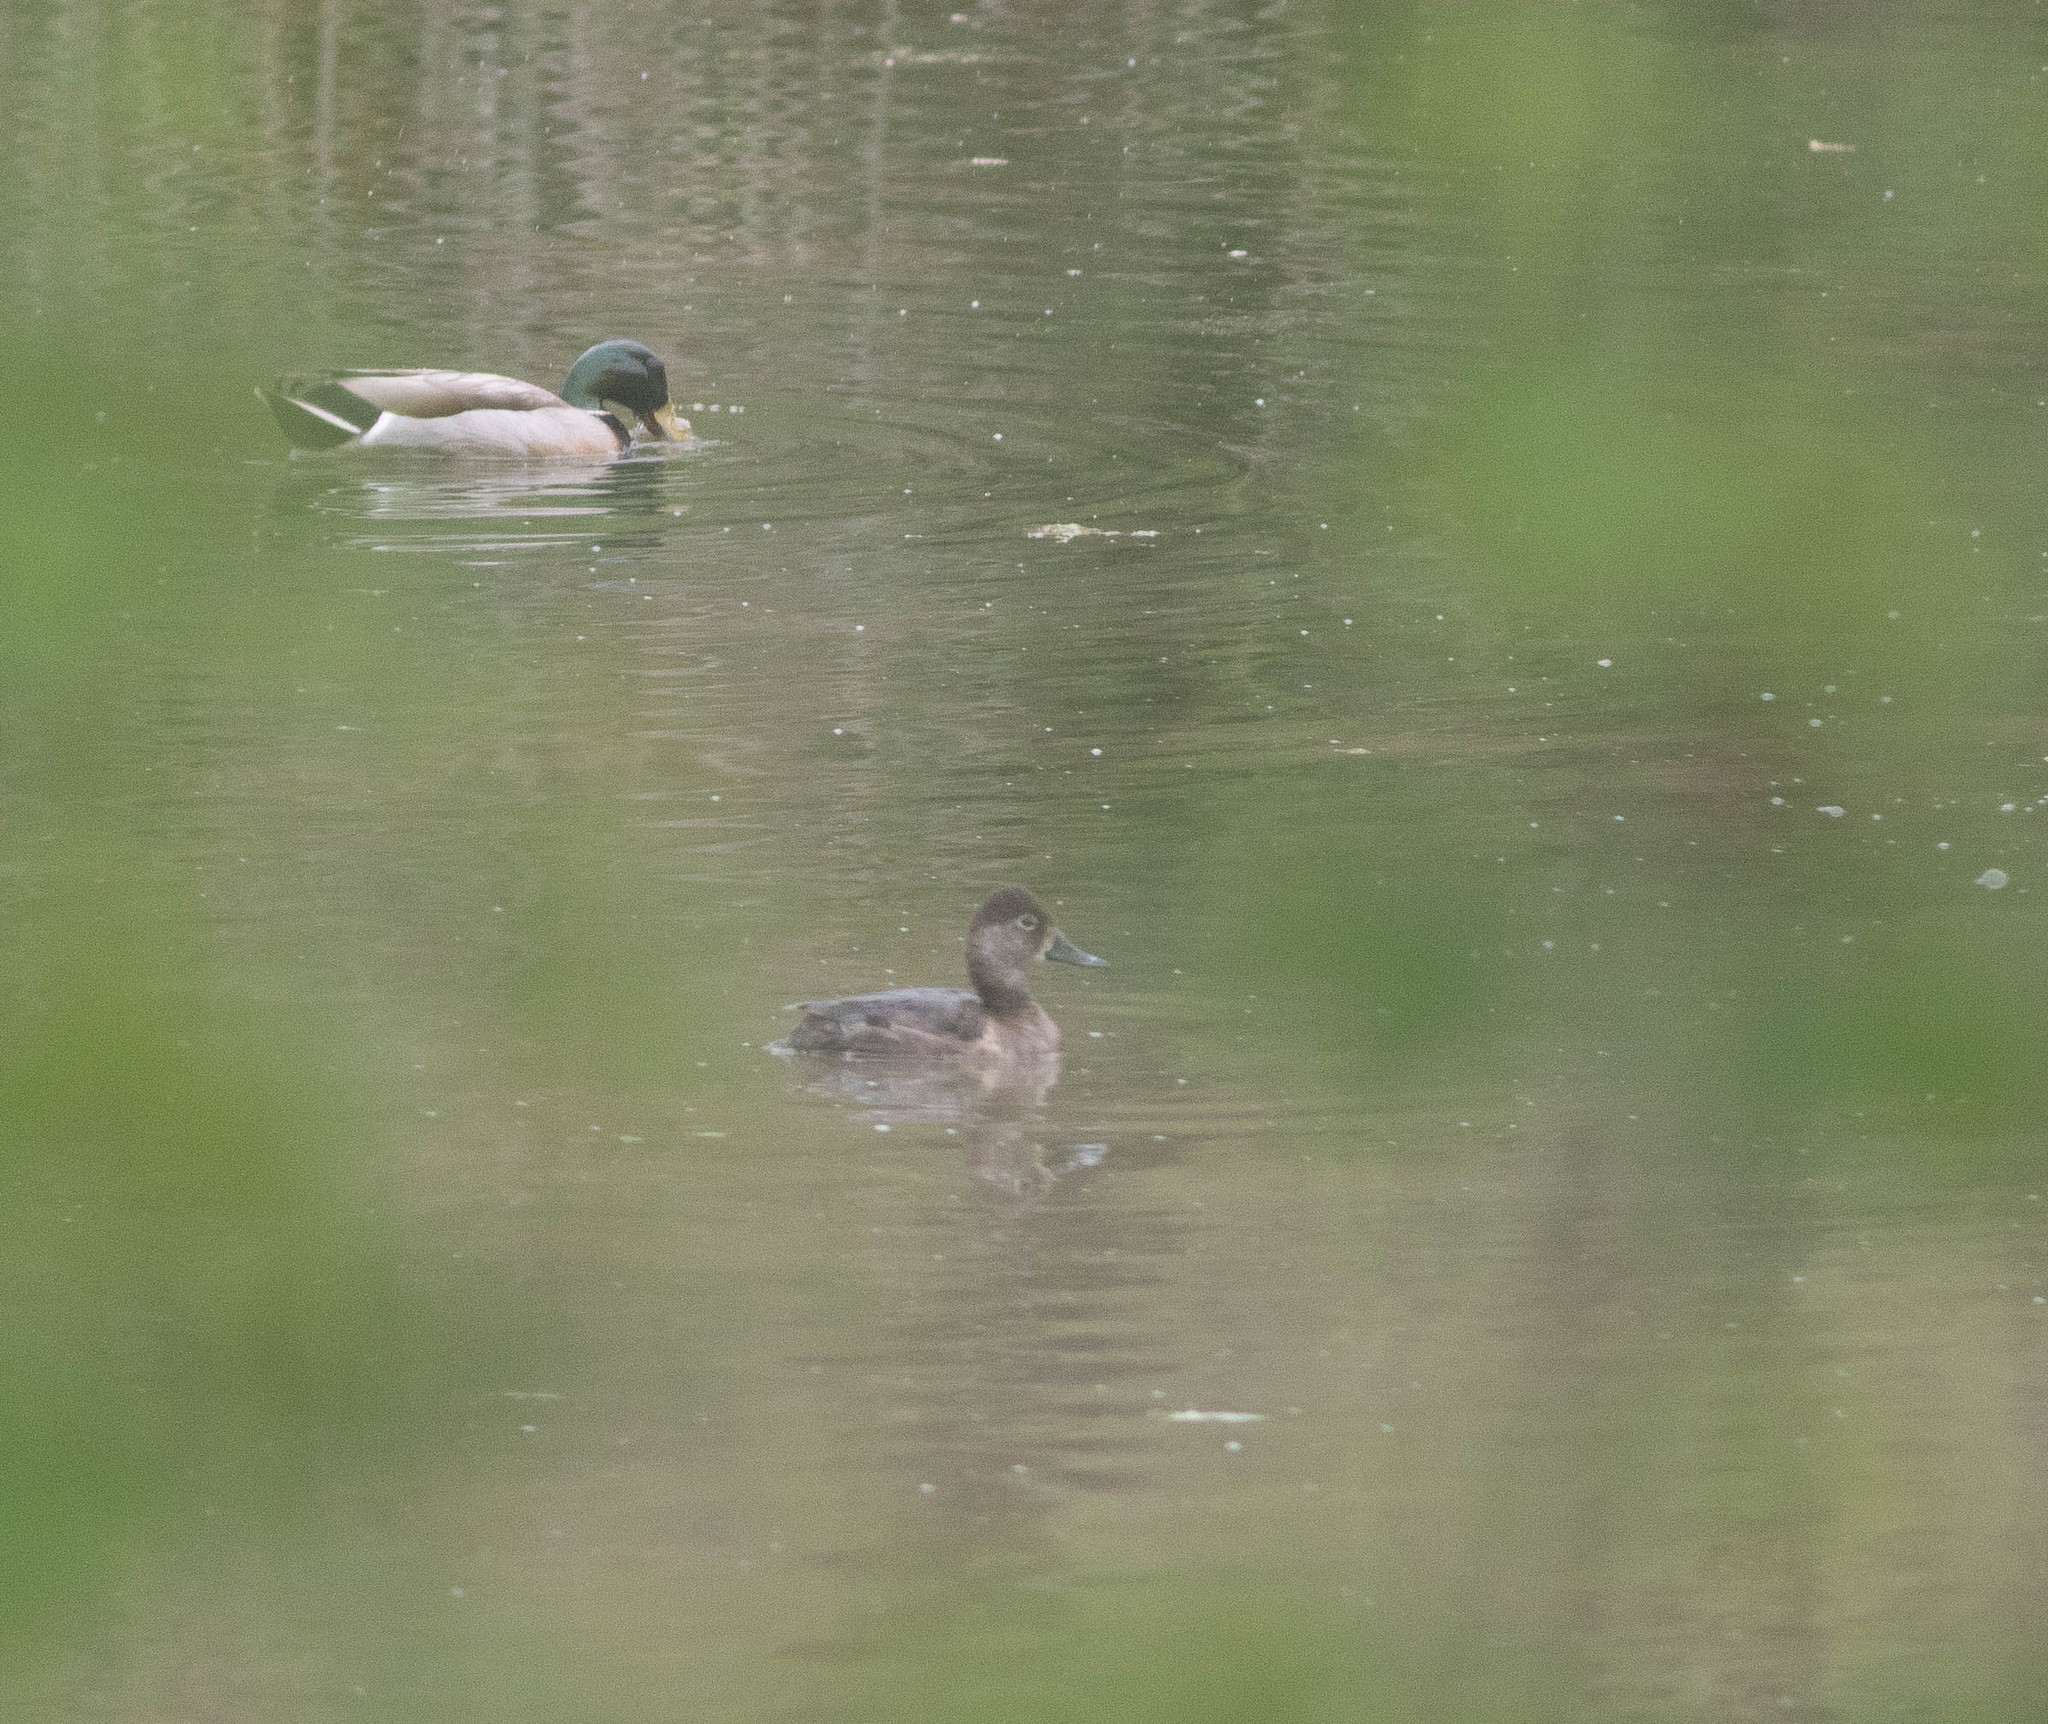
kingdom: Animalia
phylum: Chordata
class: Aves
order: Anseriformes
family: Anatidae
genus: Aythya
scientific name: Aythya collaris
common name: Ring-necked duck
